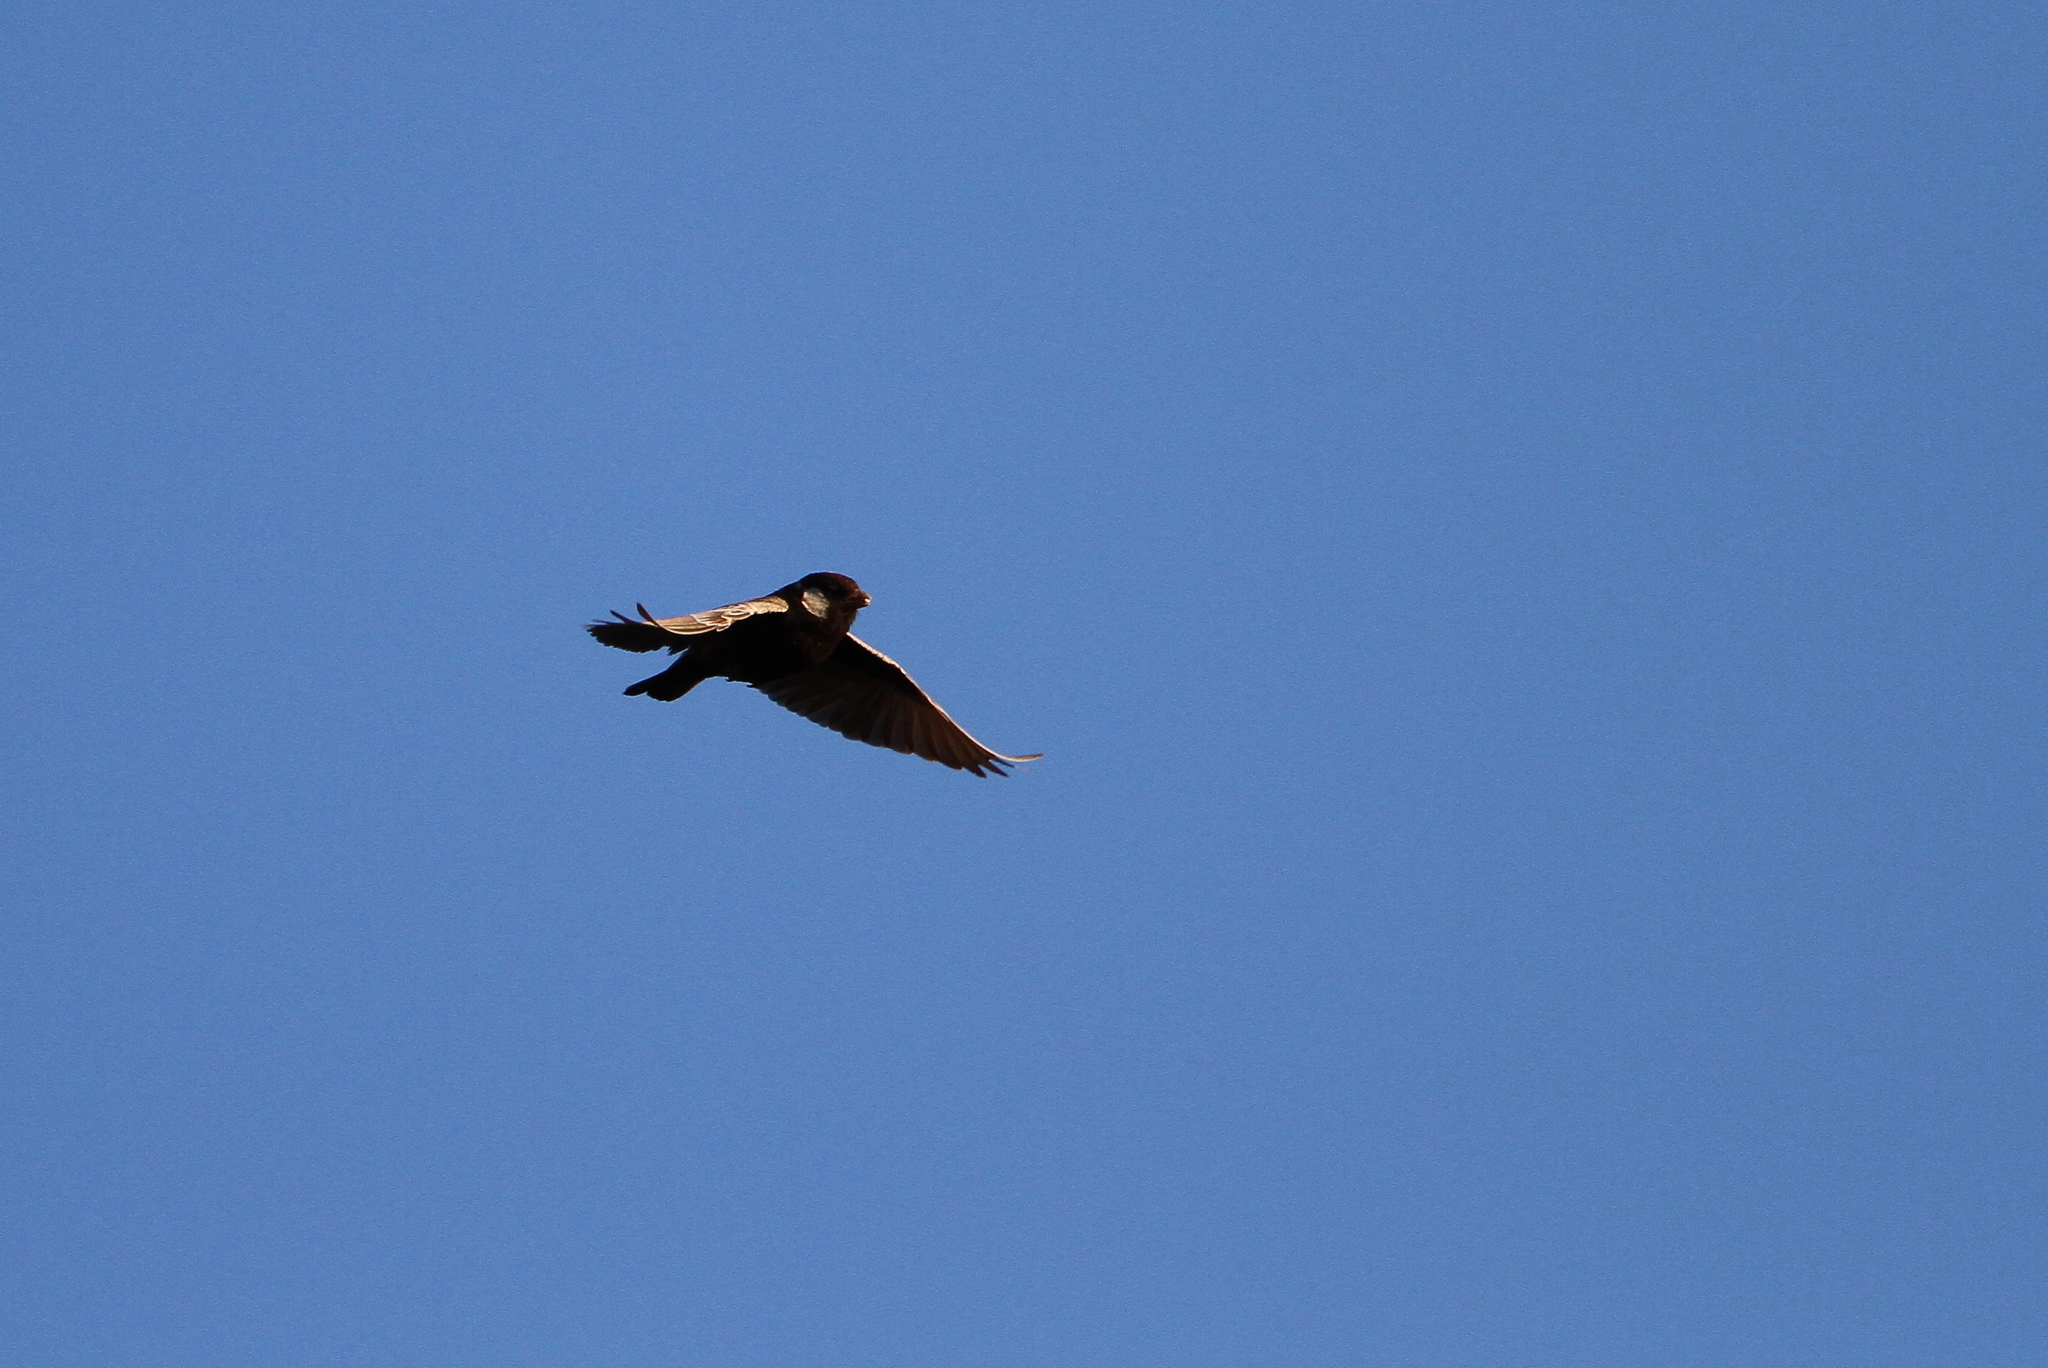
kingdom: Animalia
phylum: Chordata
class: Aves
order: Passeriformes
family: Alaudidae
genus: Eremopterix
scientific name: Eremopterix verticalis
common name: Grey-backed sparrow-lark
